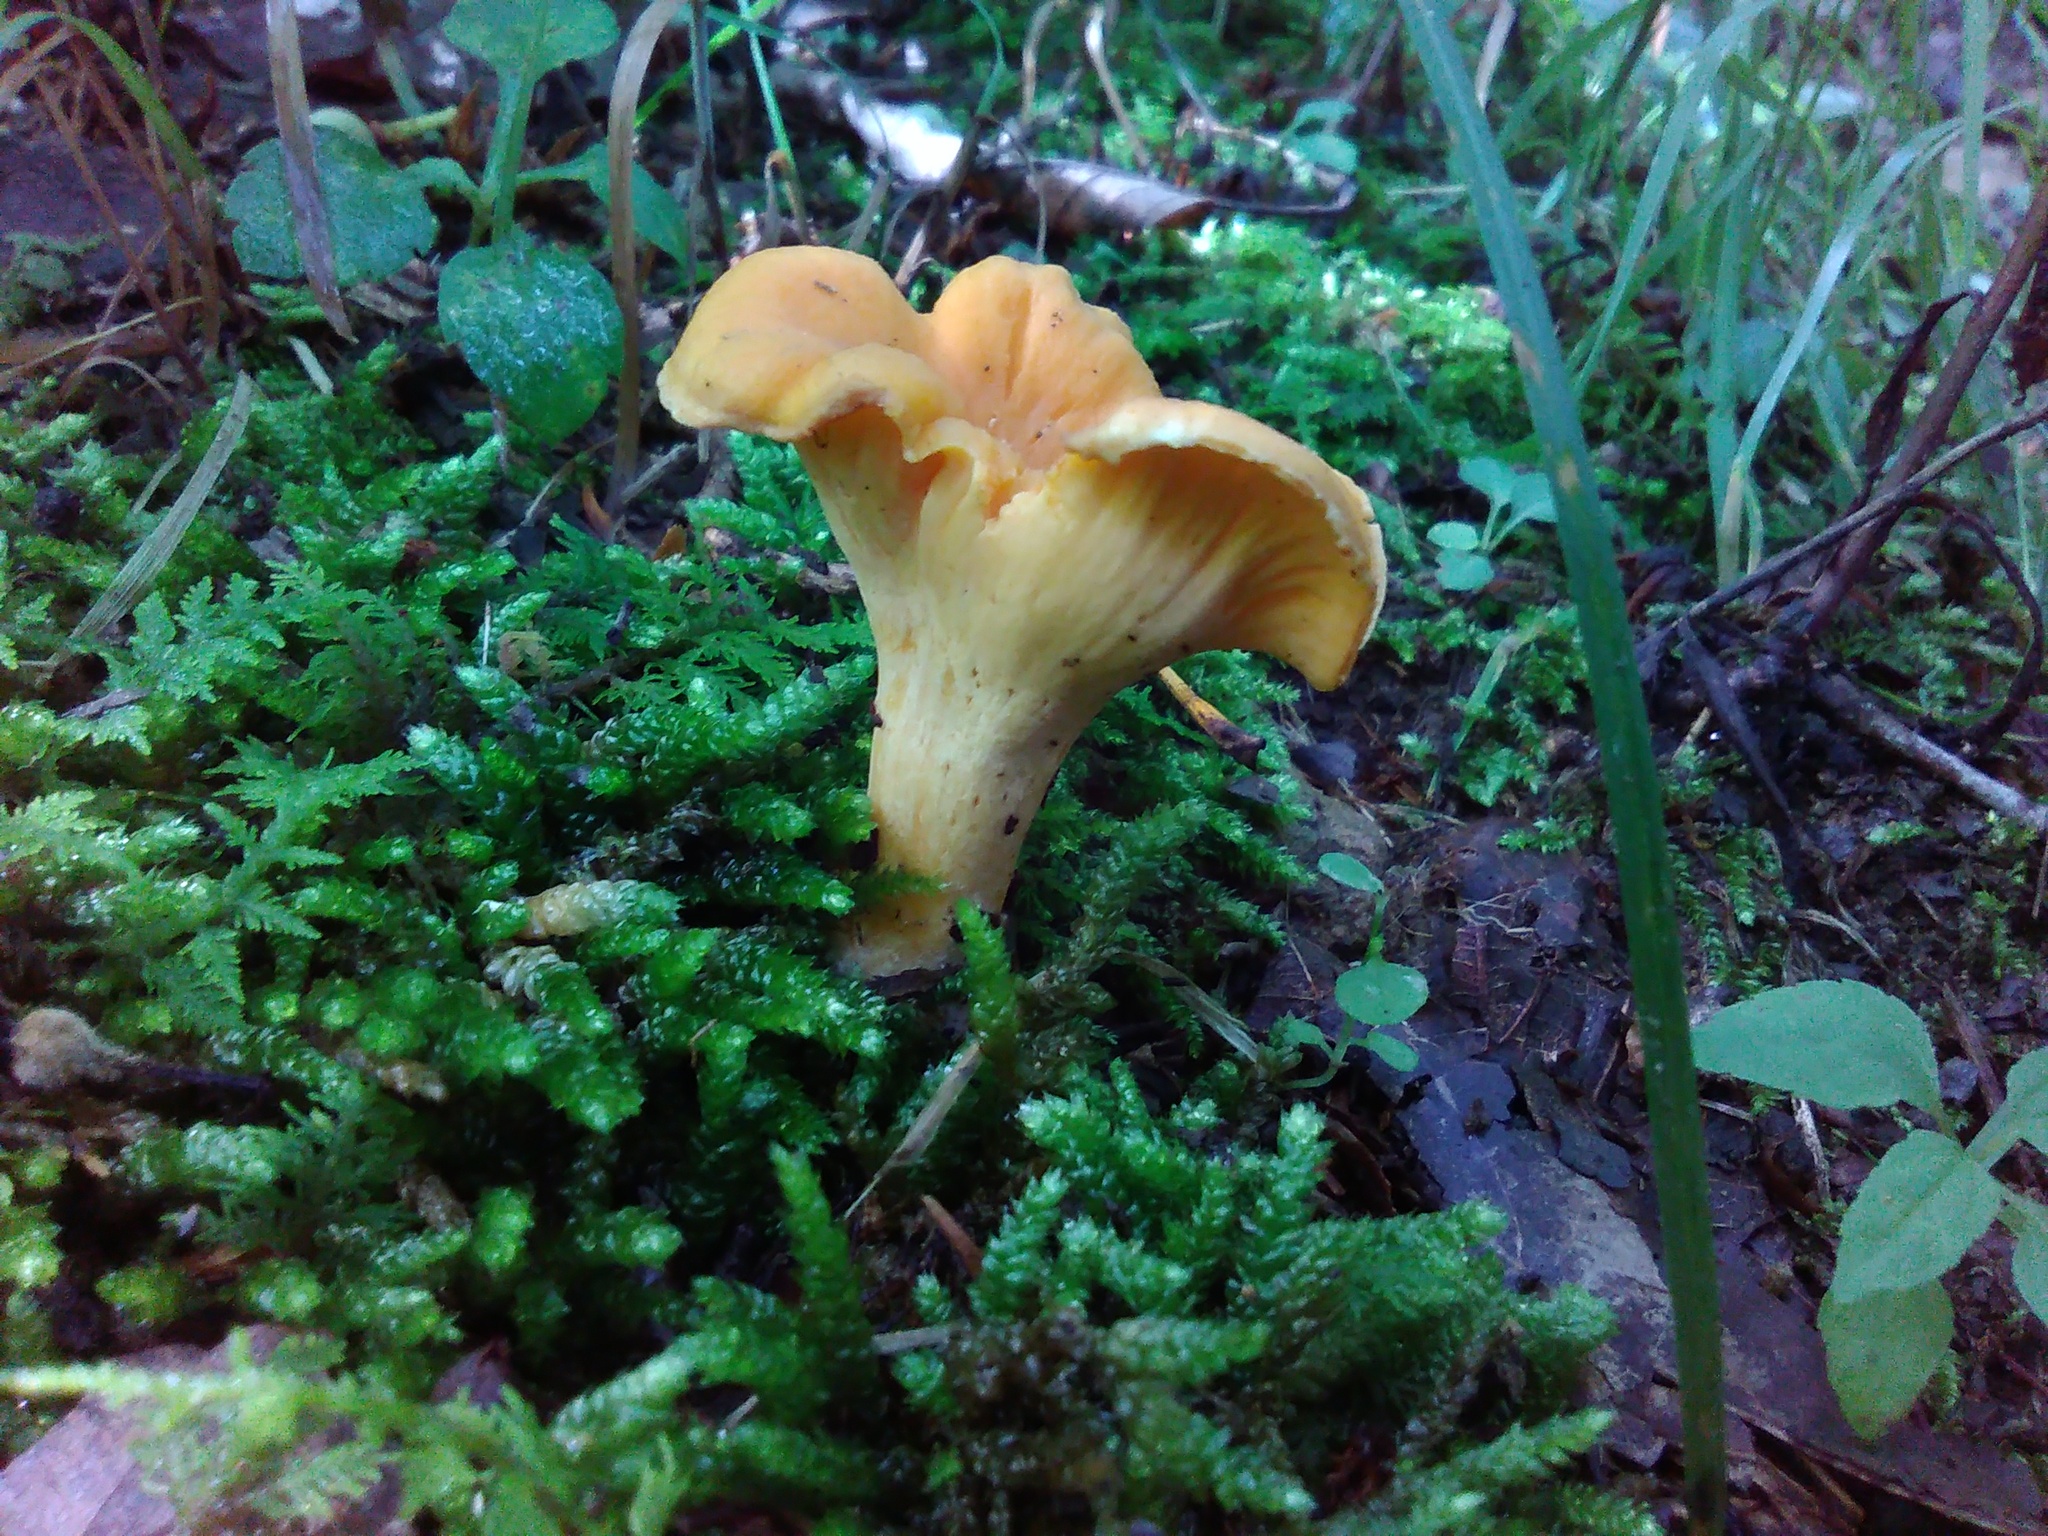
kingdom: Fungi
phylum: Basidiomycota
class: Agaricomycetes
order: Cantharellales
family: Hydnaceae
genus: Cantharellus
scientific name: Cantharellus lateritius
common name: Smooth chanterelle
